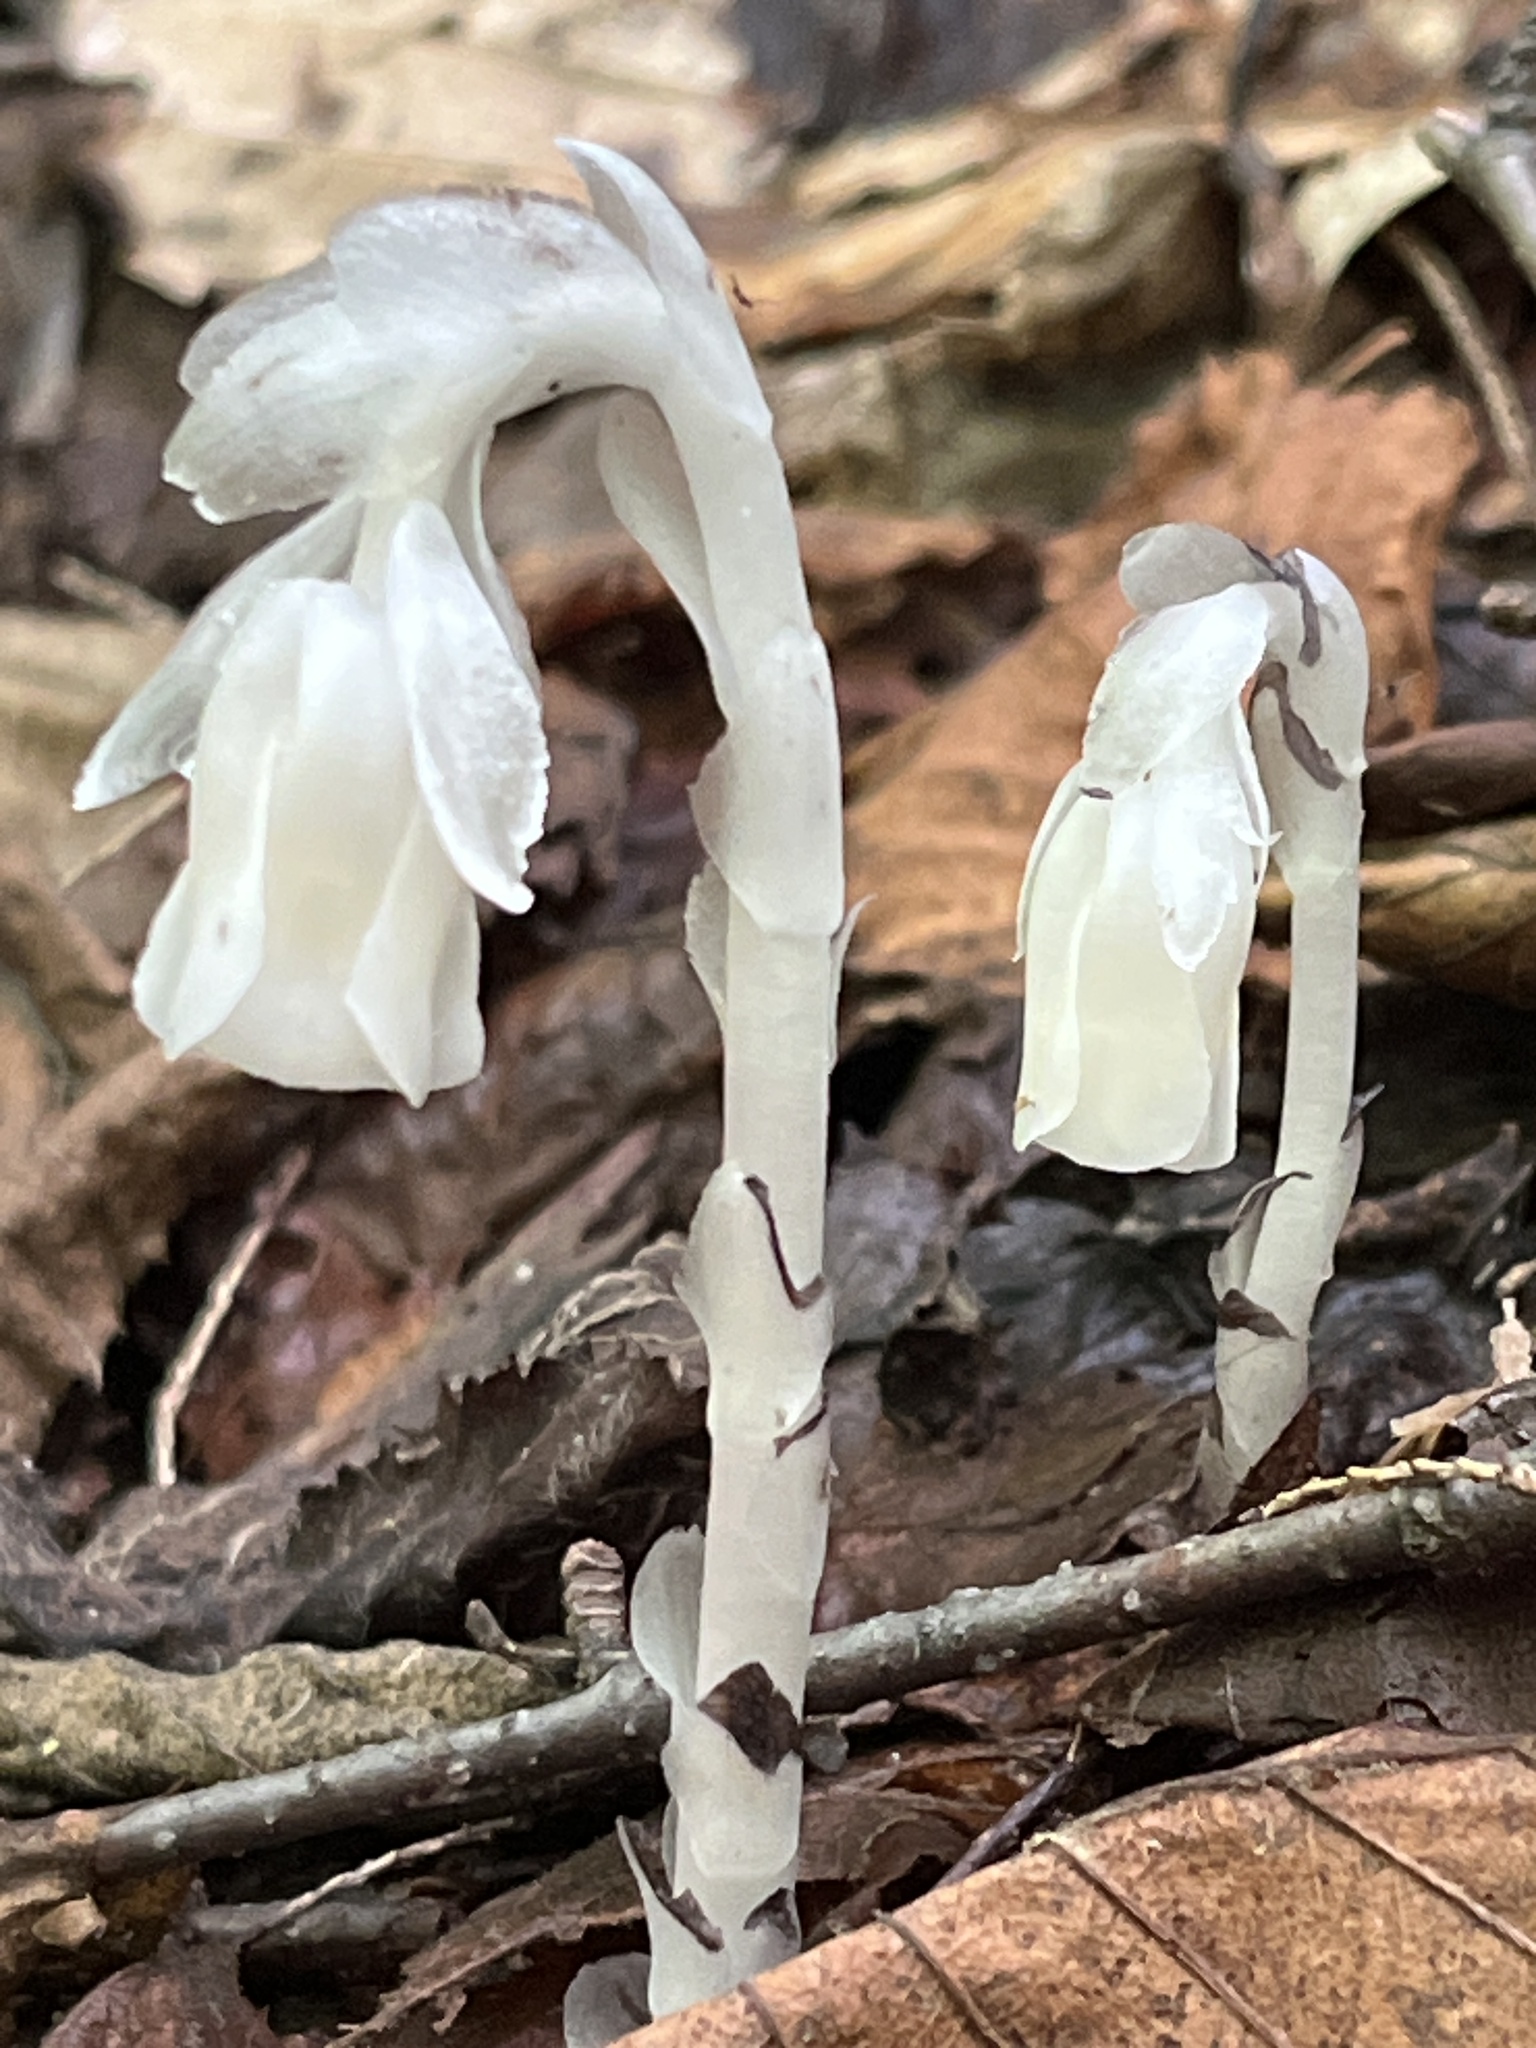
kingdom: Plantae
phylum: Tracheophyta
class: Magnoliopsida
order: Ericales
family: Ericaceae
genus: Monotropa
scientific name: Monotropa uniflora
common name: Convulsion root
